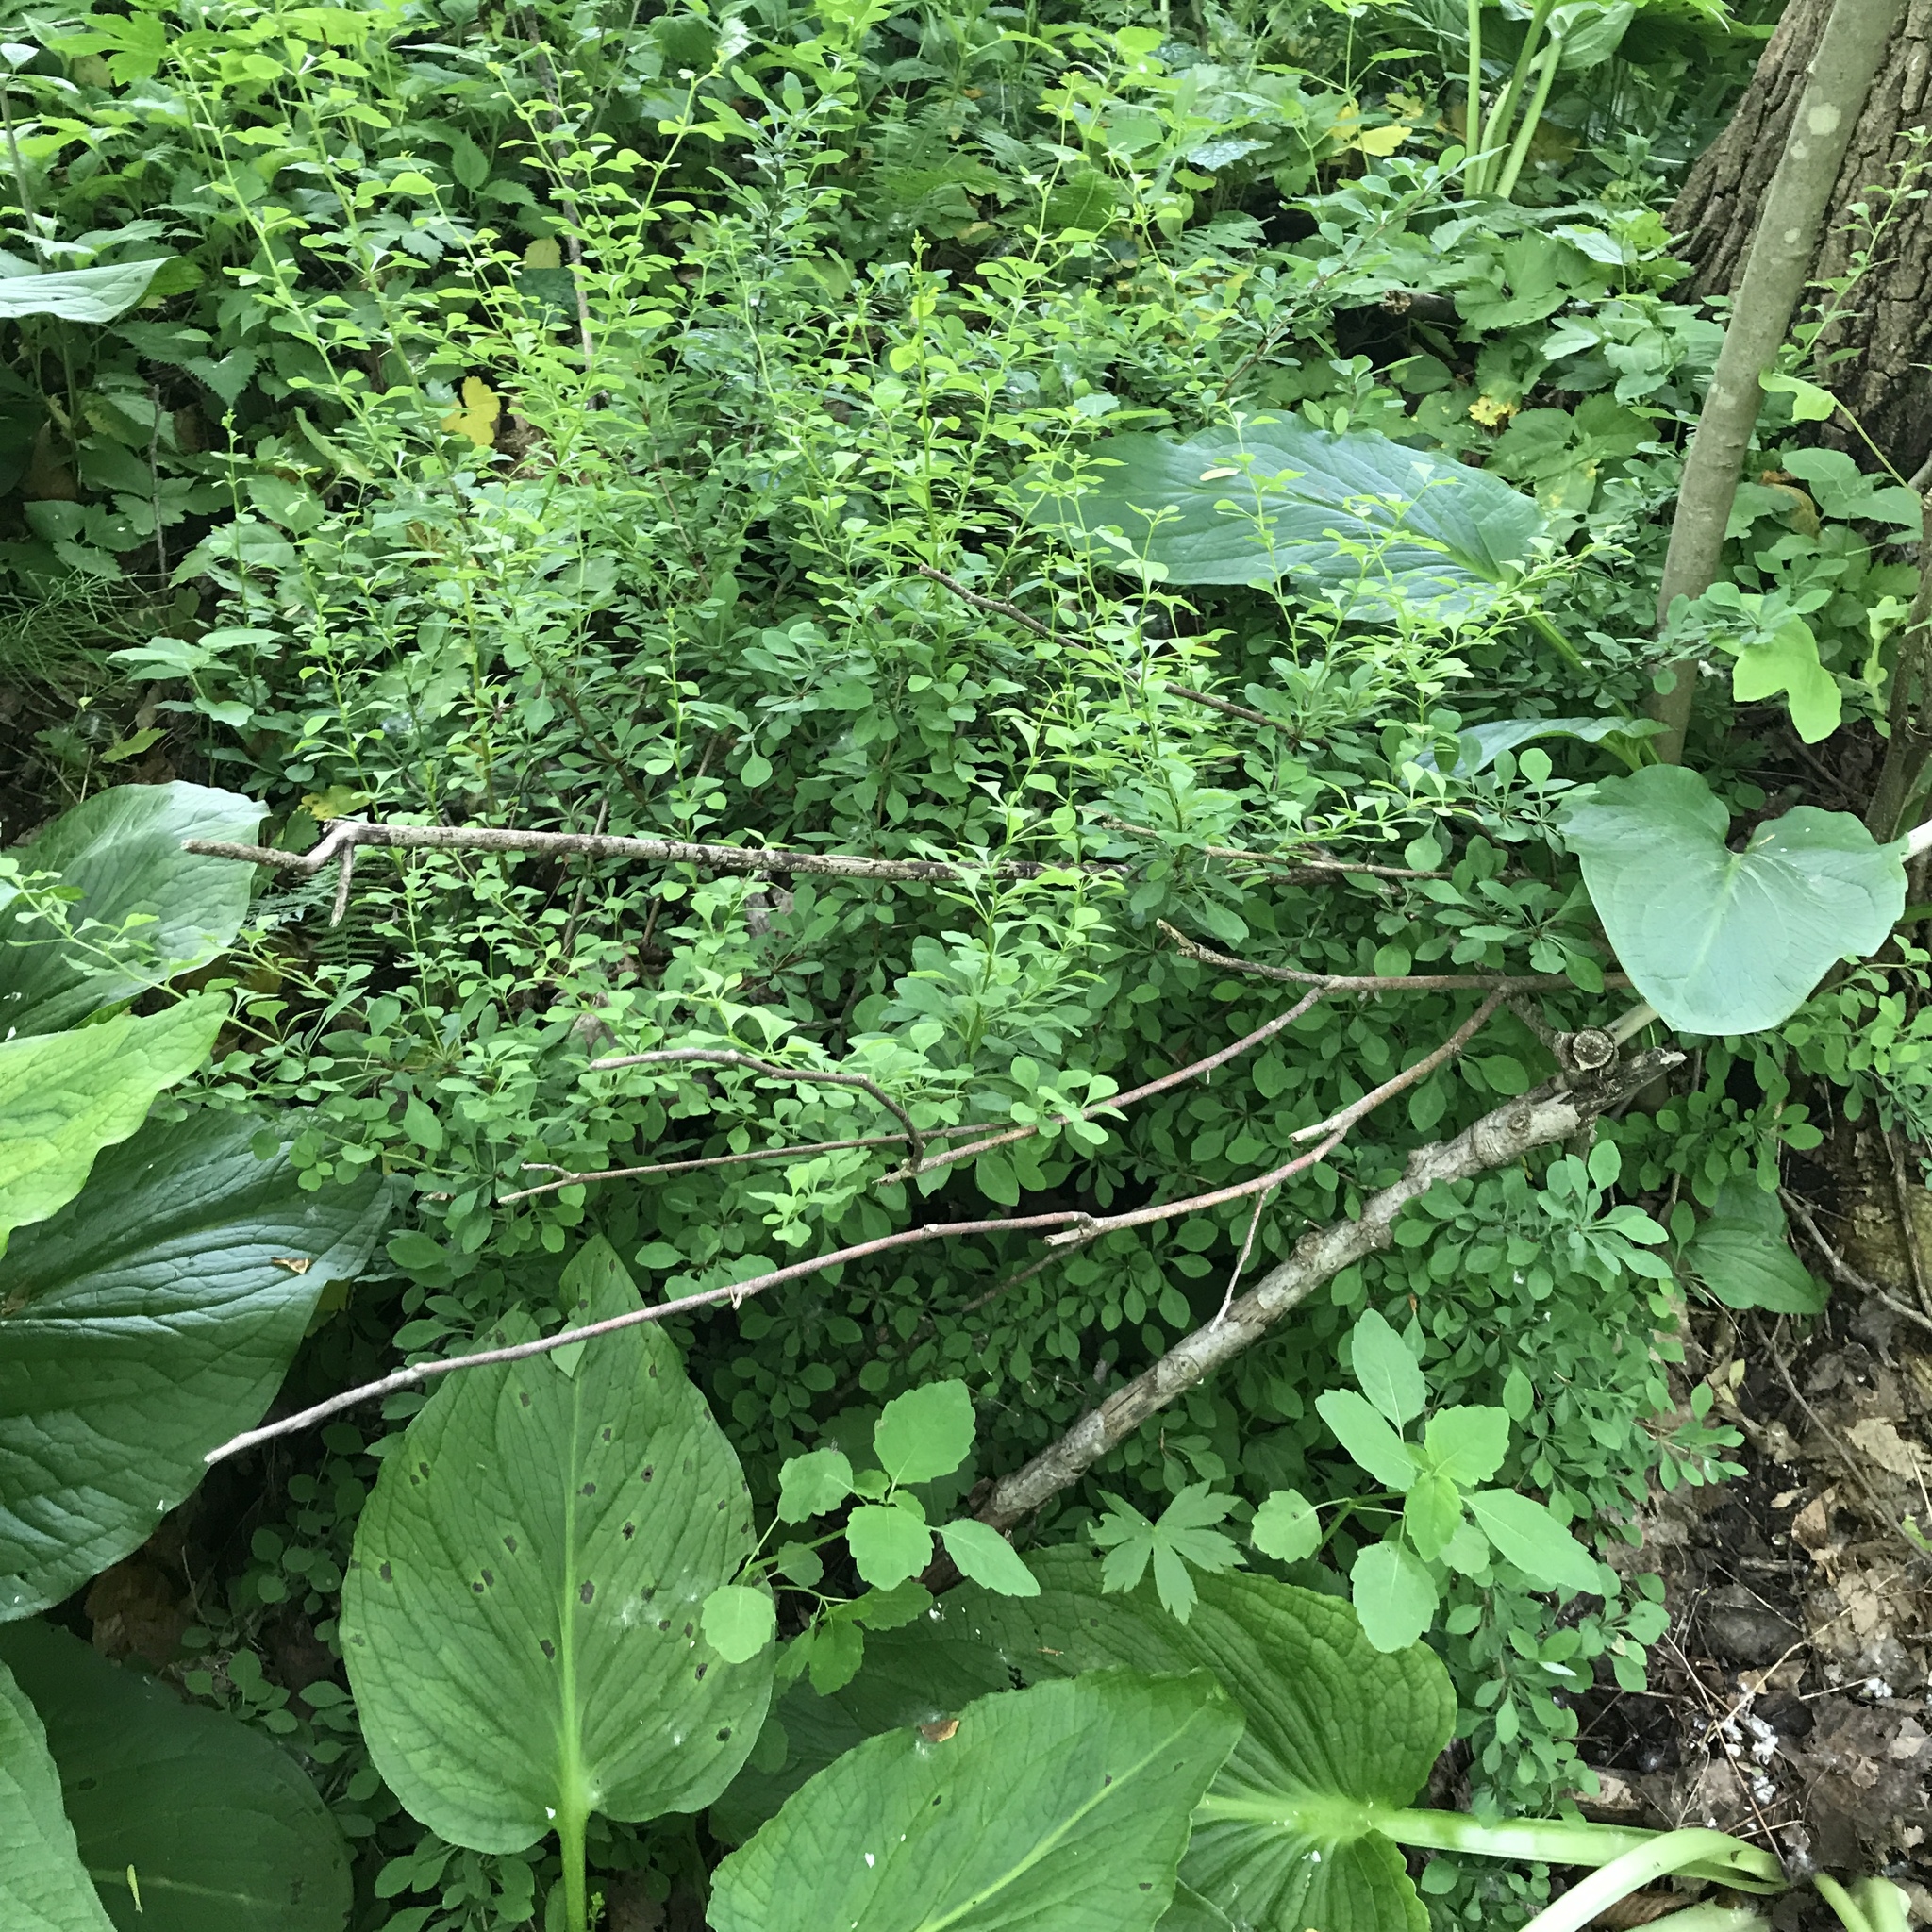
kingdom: Plantae
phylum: Tracheophyta
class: Magnoliopsida
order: Ranunculales
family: Berberidaceae
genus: Berberis
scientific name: Berberis thunbergii
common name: Japanese barberry
